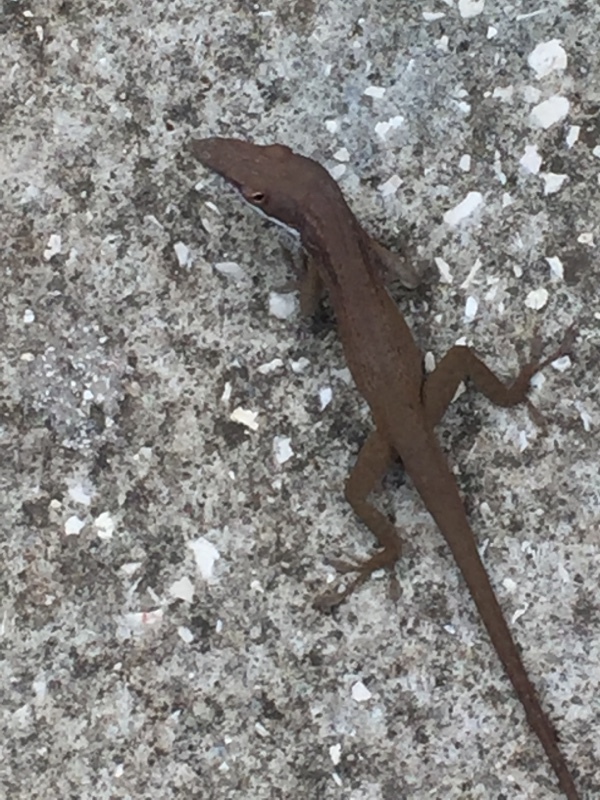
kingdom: Animalia
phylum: Chordata
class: Squamata
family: Dactyloidae
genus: Anolis
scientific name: Anolis porcatus
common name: Cuban green anole
